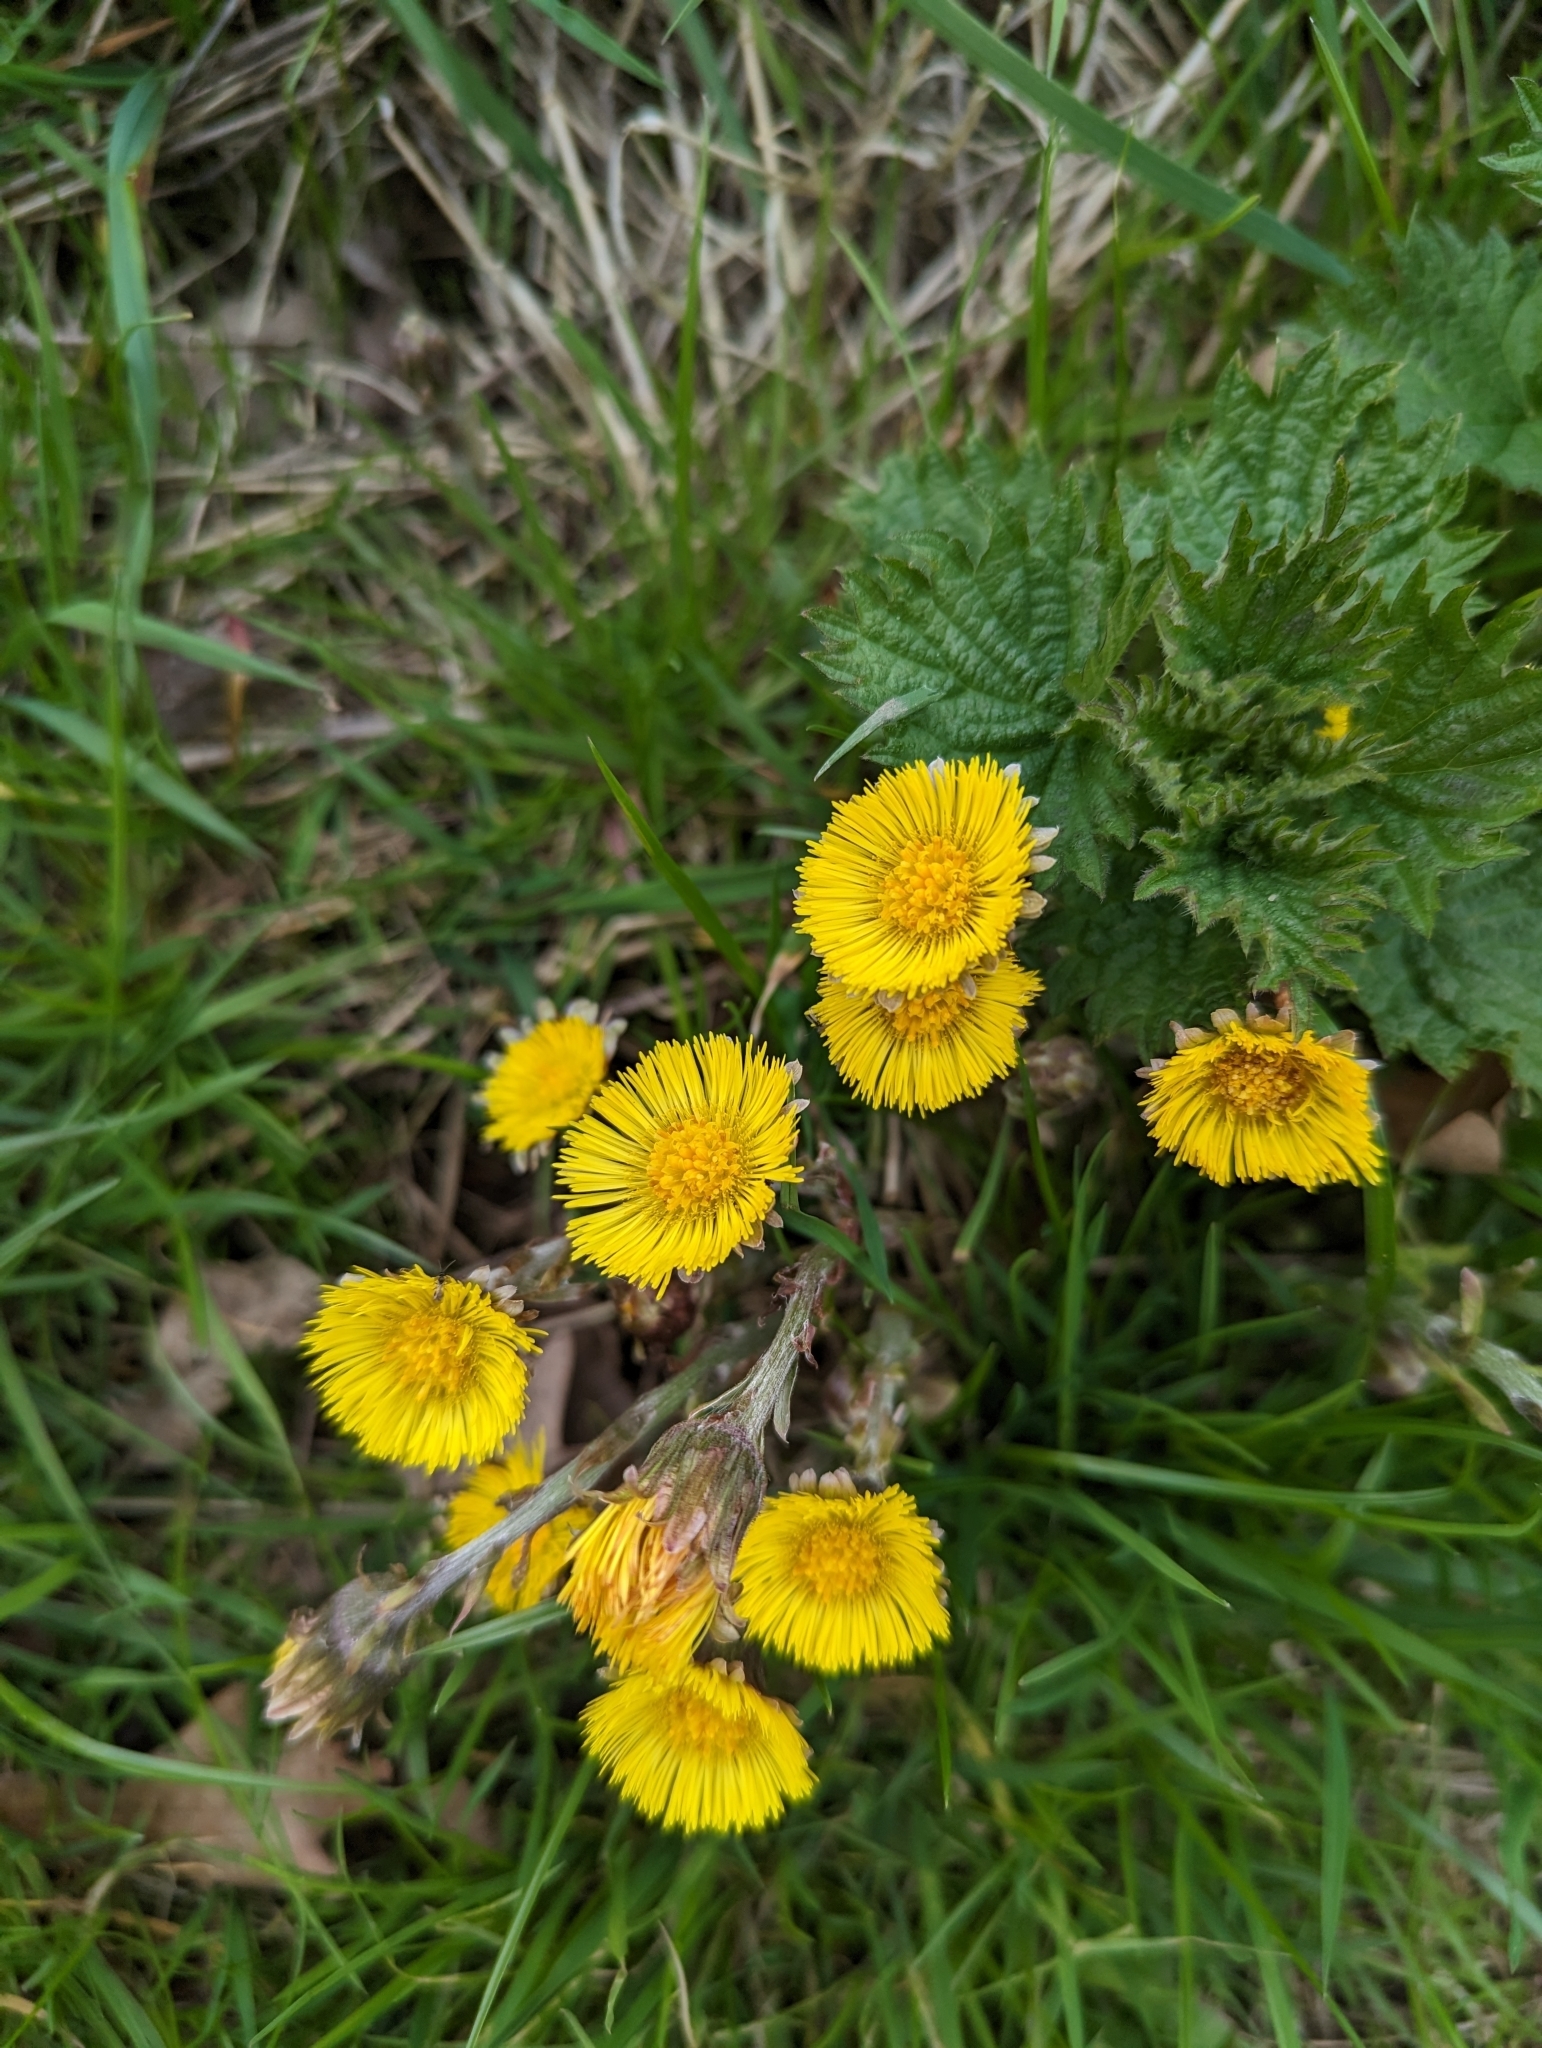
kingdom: Plantae
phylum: Tracheophyta
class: Magnoliopsida
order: Asterales
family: Asteraceae
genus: Tussilago
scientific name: Tussilago farfara
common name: Coltsfoot
